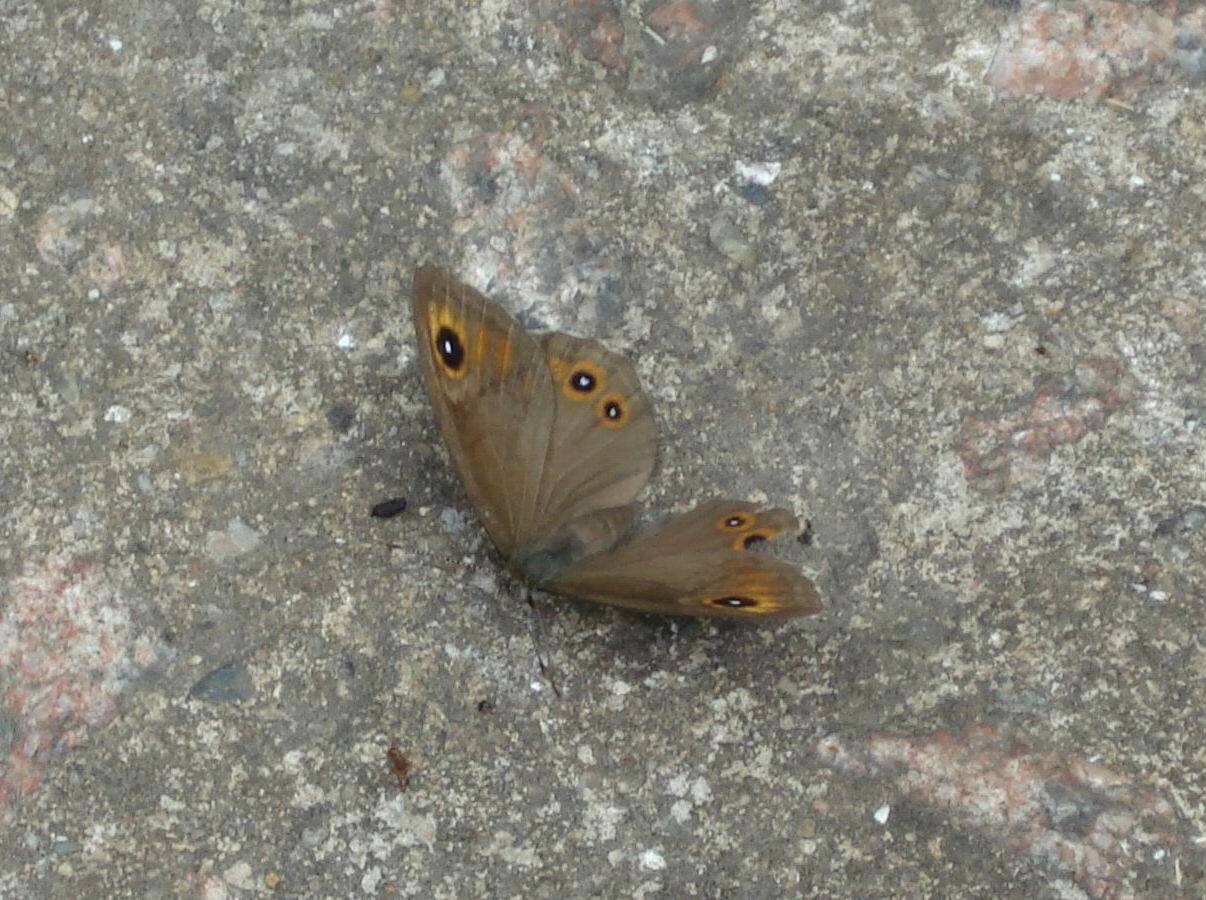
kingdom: Animalia
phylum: Arthropoda
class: Insecta
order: Lepidoptera
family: Nymphalidae
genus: Pararge
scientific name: Pararge Lasiommata maera
